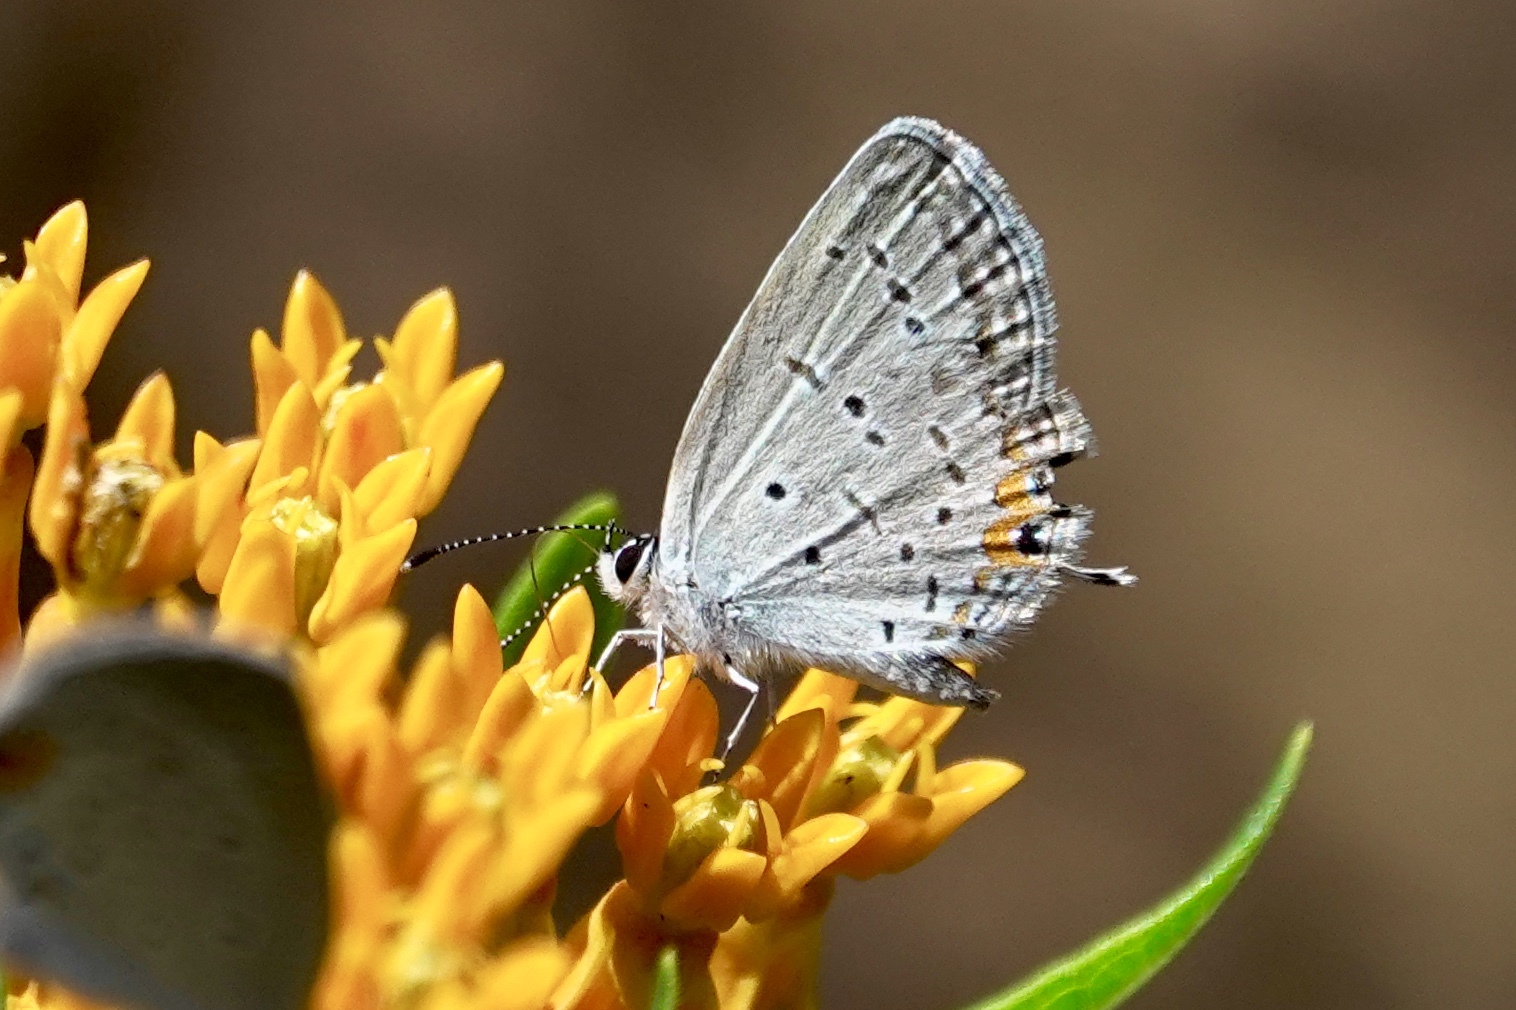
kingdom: Animalia
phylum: Arthropoda
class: Insecta
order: Lepidoptera
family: Lycaenidae
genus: Elkalyce
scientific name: Elkalyce comyntas
